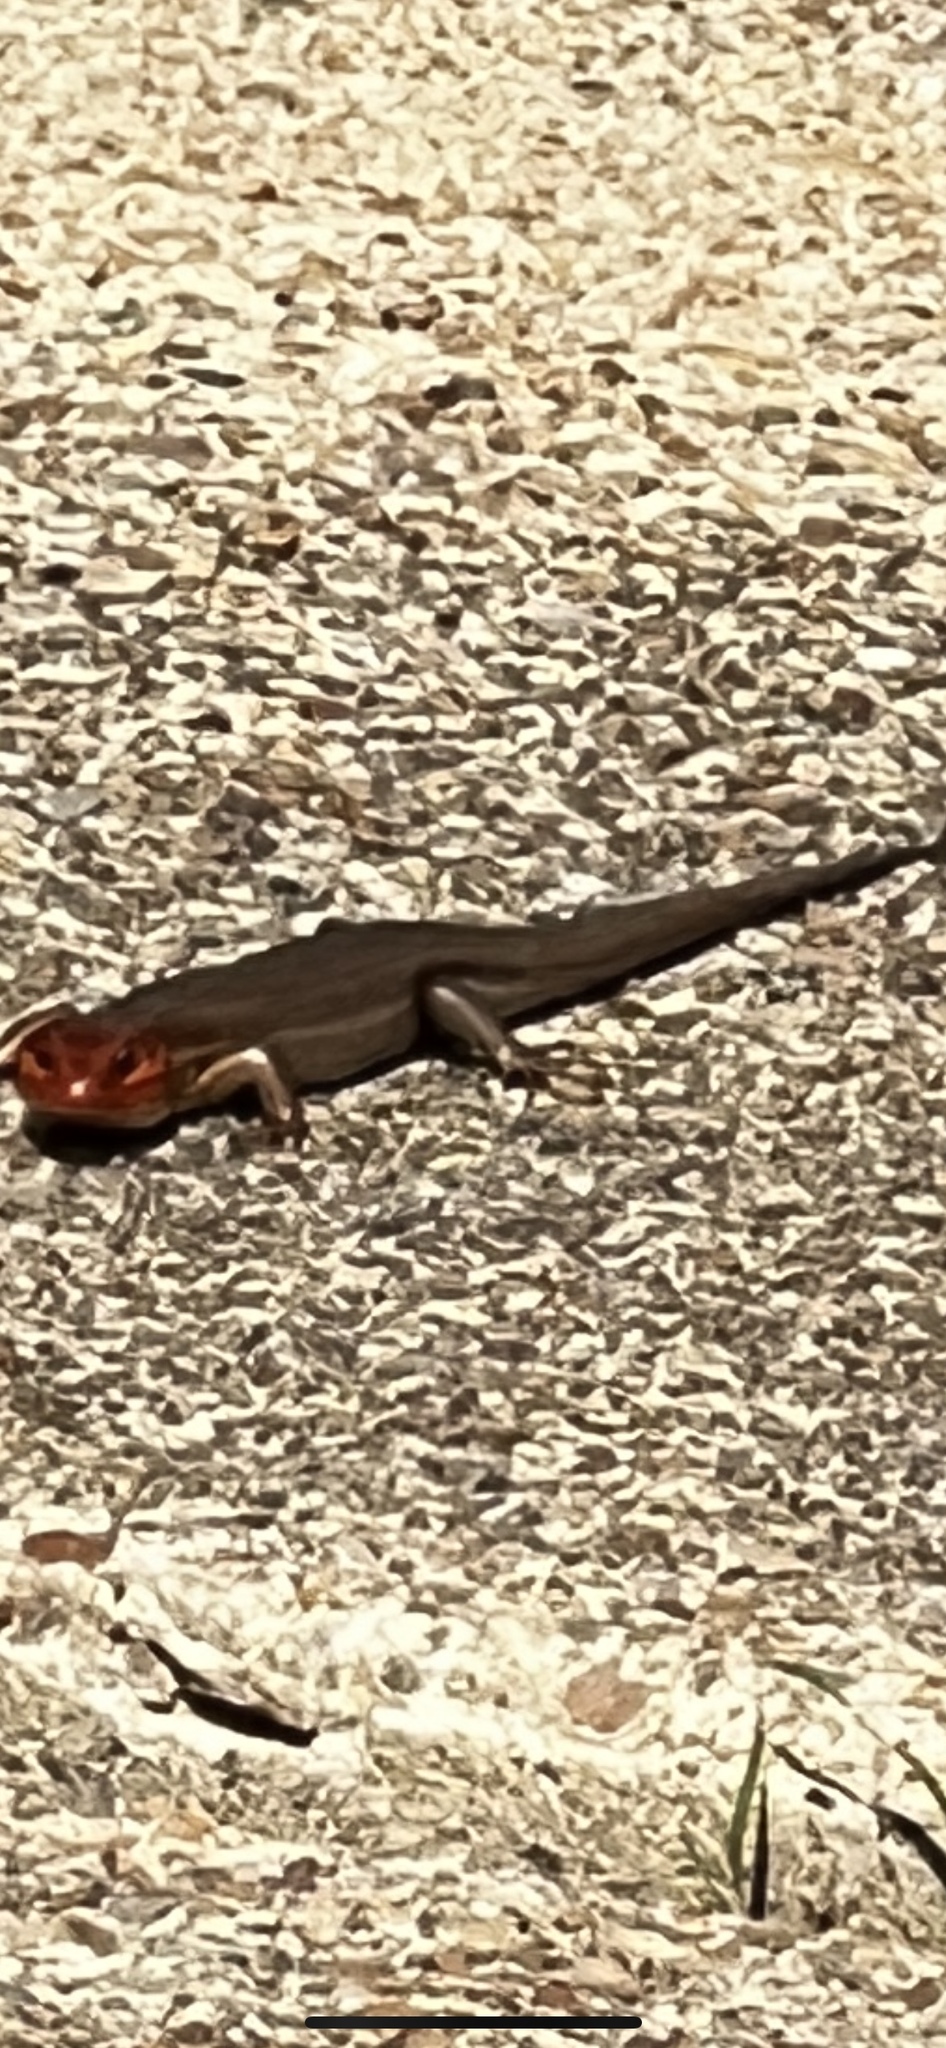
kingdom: Animalia
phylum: Chordata
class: Squamata
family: Scincidae
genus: Plestiodon
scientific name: Plestiodon laticeps
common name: Broadhead skink
